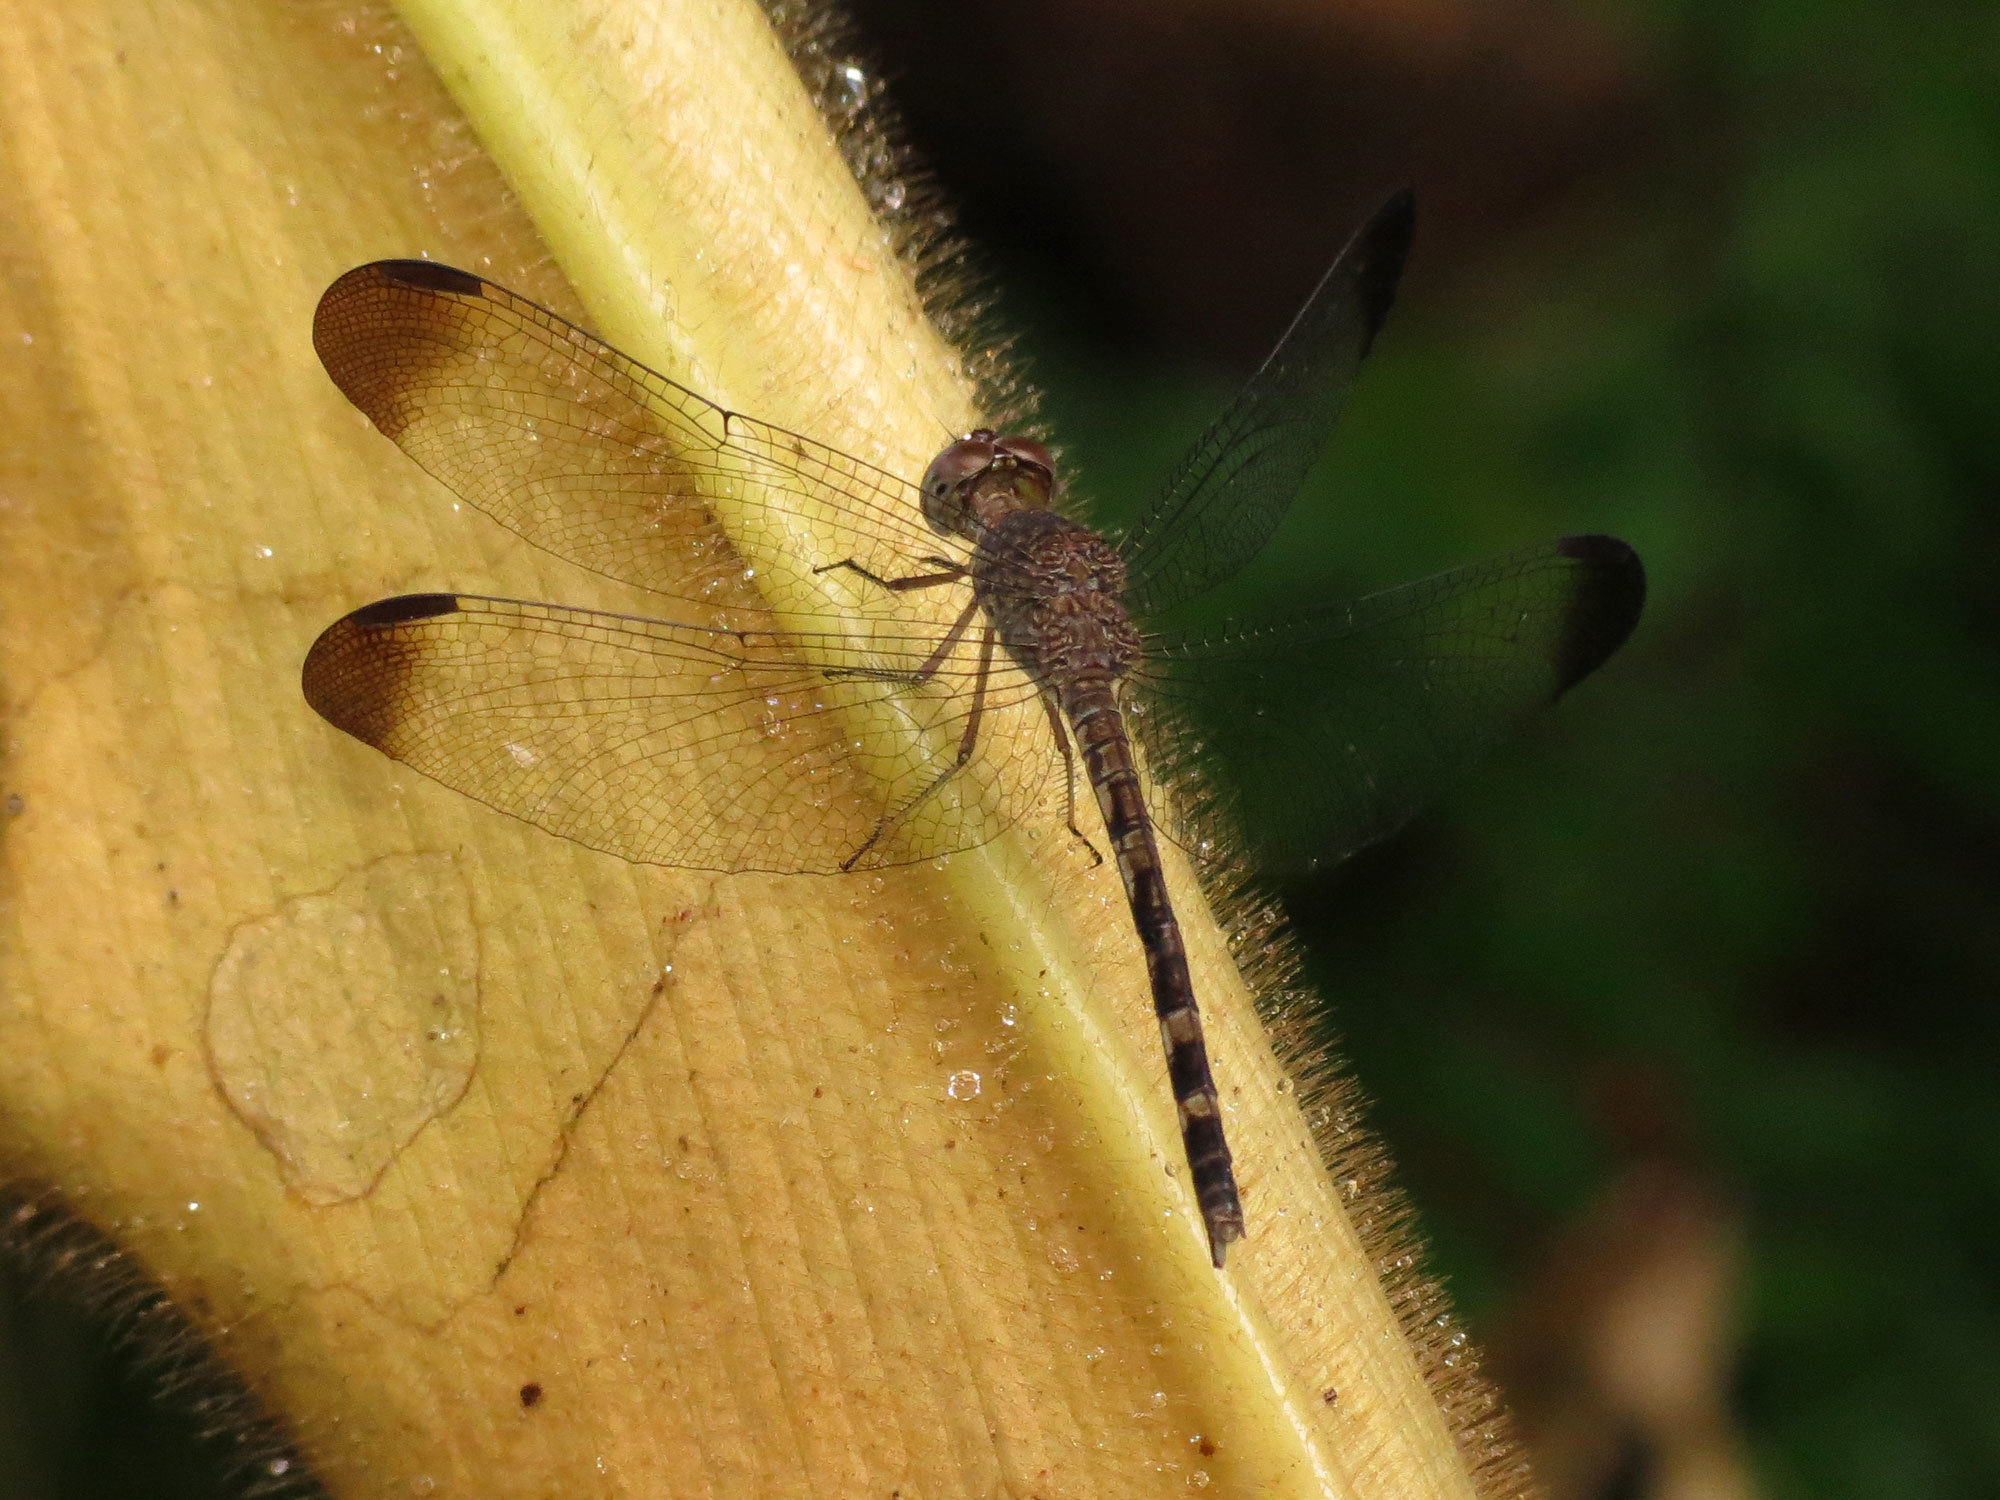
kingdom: Animalia
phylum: Arthropoda
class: Insecta
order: Odonata
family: Libellulidae
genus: Uracis
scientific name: Uracis imbuta
